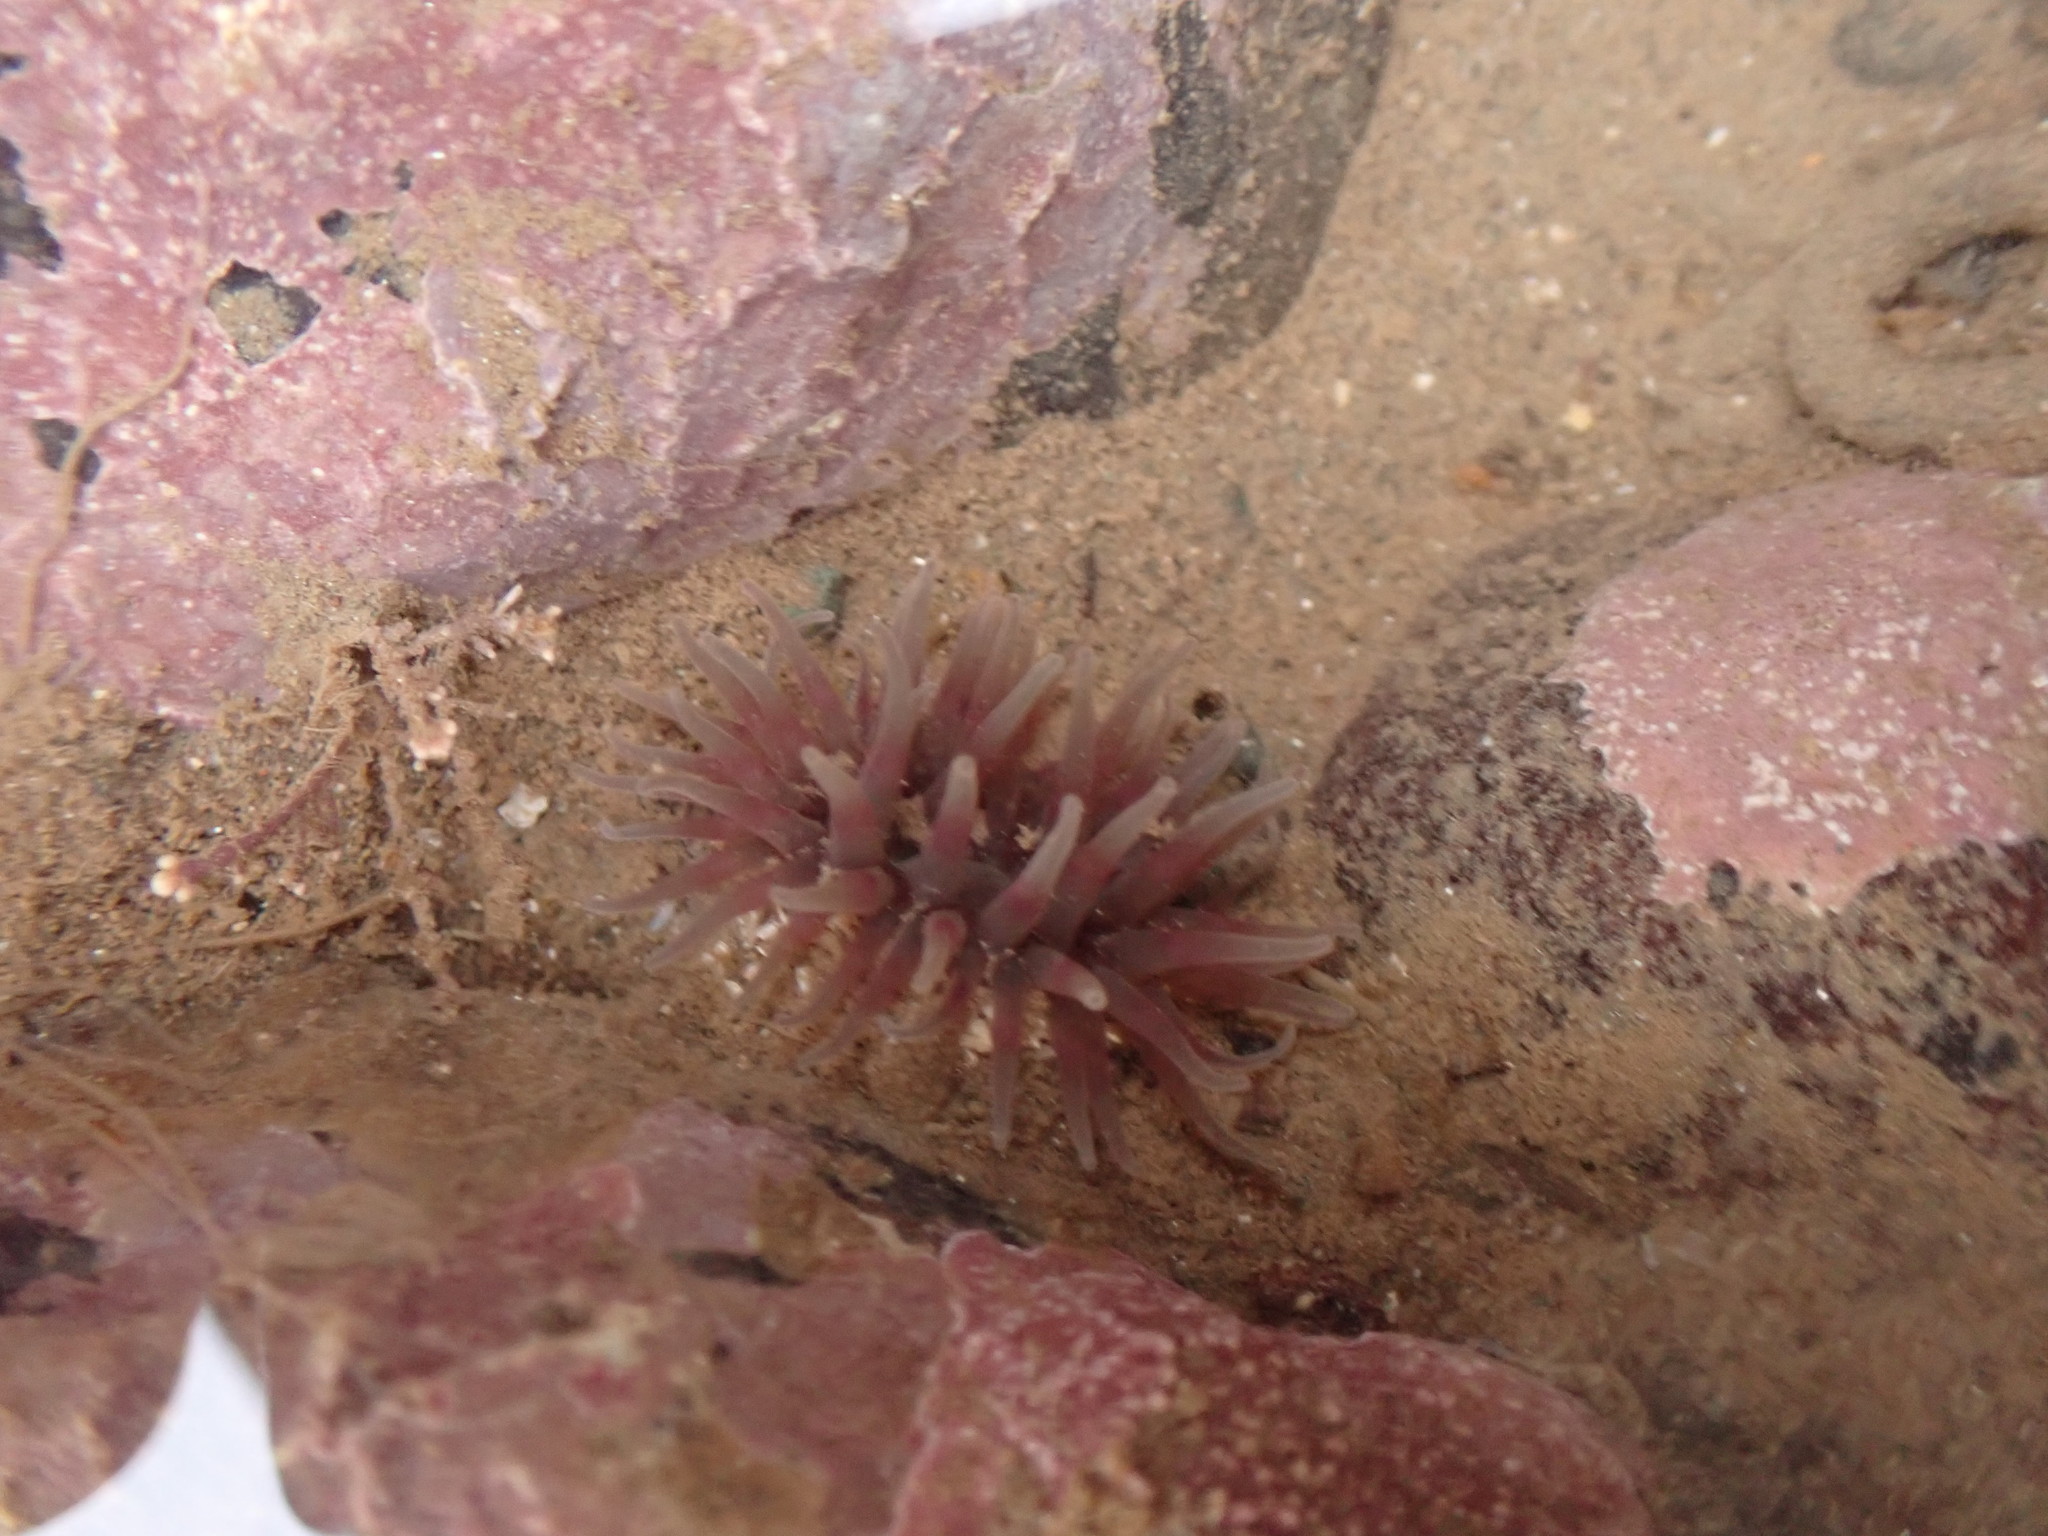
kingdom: Animalia
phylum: Cnidaria
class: Anthozoa
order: Actiniaria
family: Actiniidae
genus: Urticina
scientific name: Urticina crassicornis
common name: Mottled anemone
